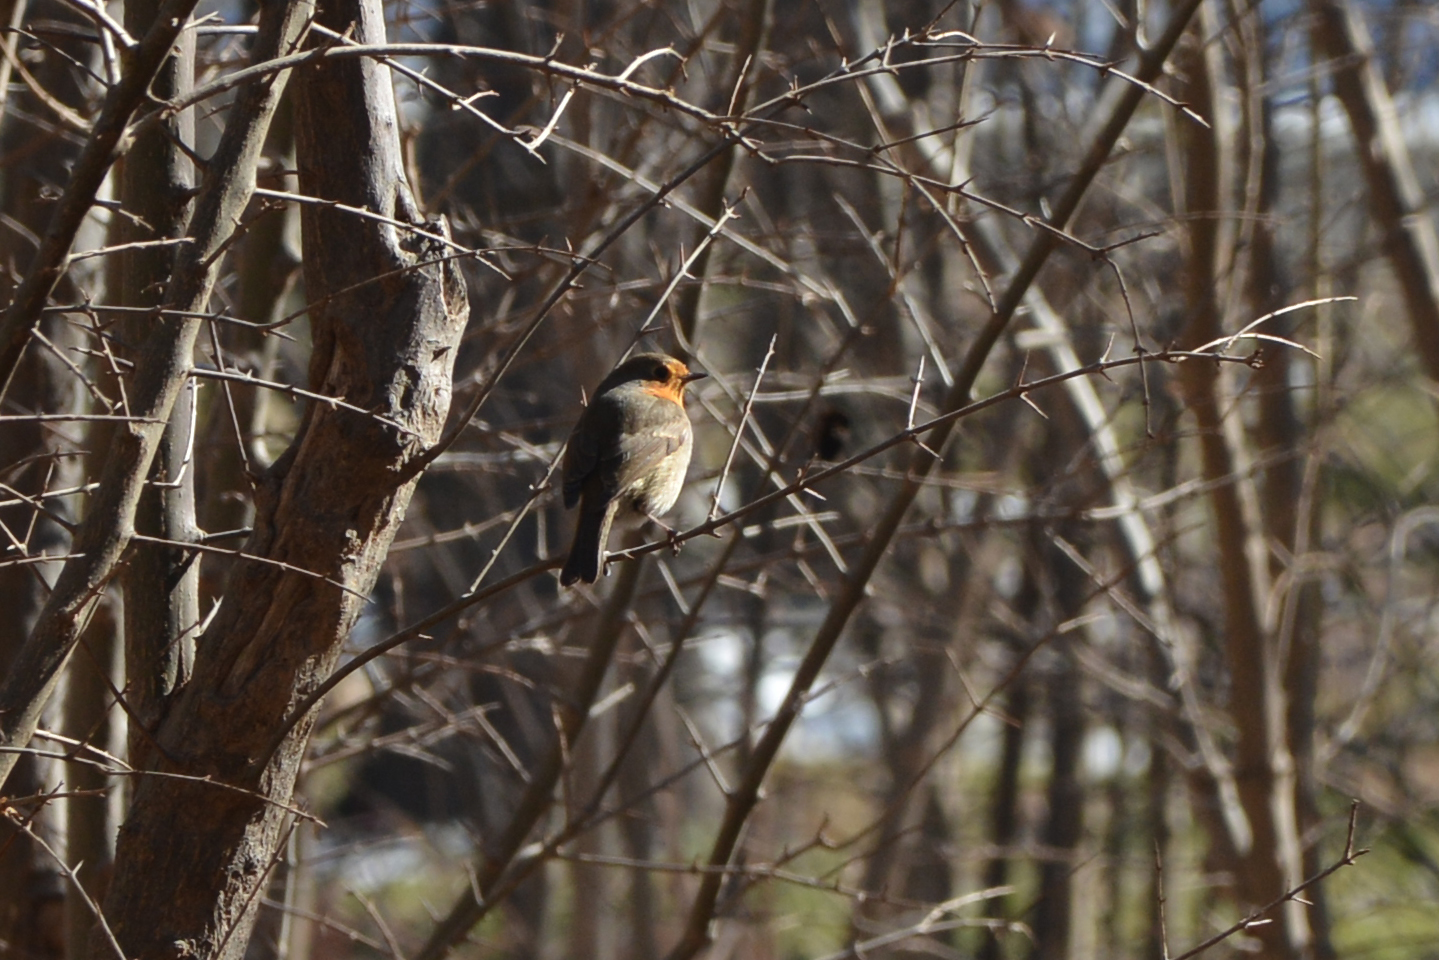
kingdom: Animalia
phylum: Chordata
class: Aves
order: Passeriformes
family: Muscicapidae
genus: Erithacus
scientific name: Erithacus rubecula
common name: European robin
